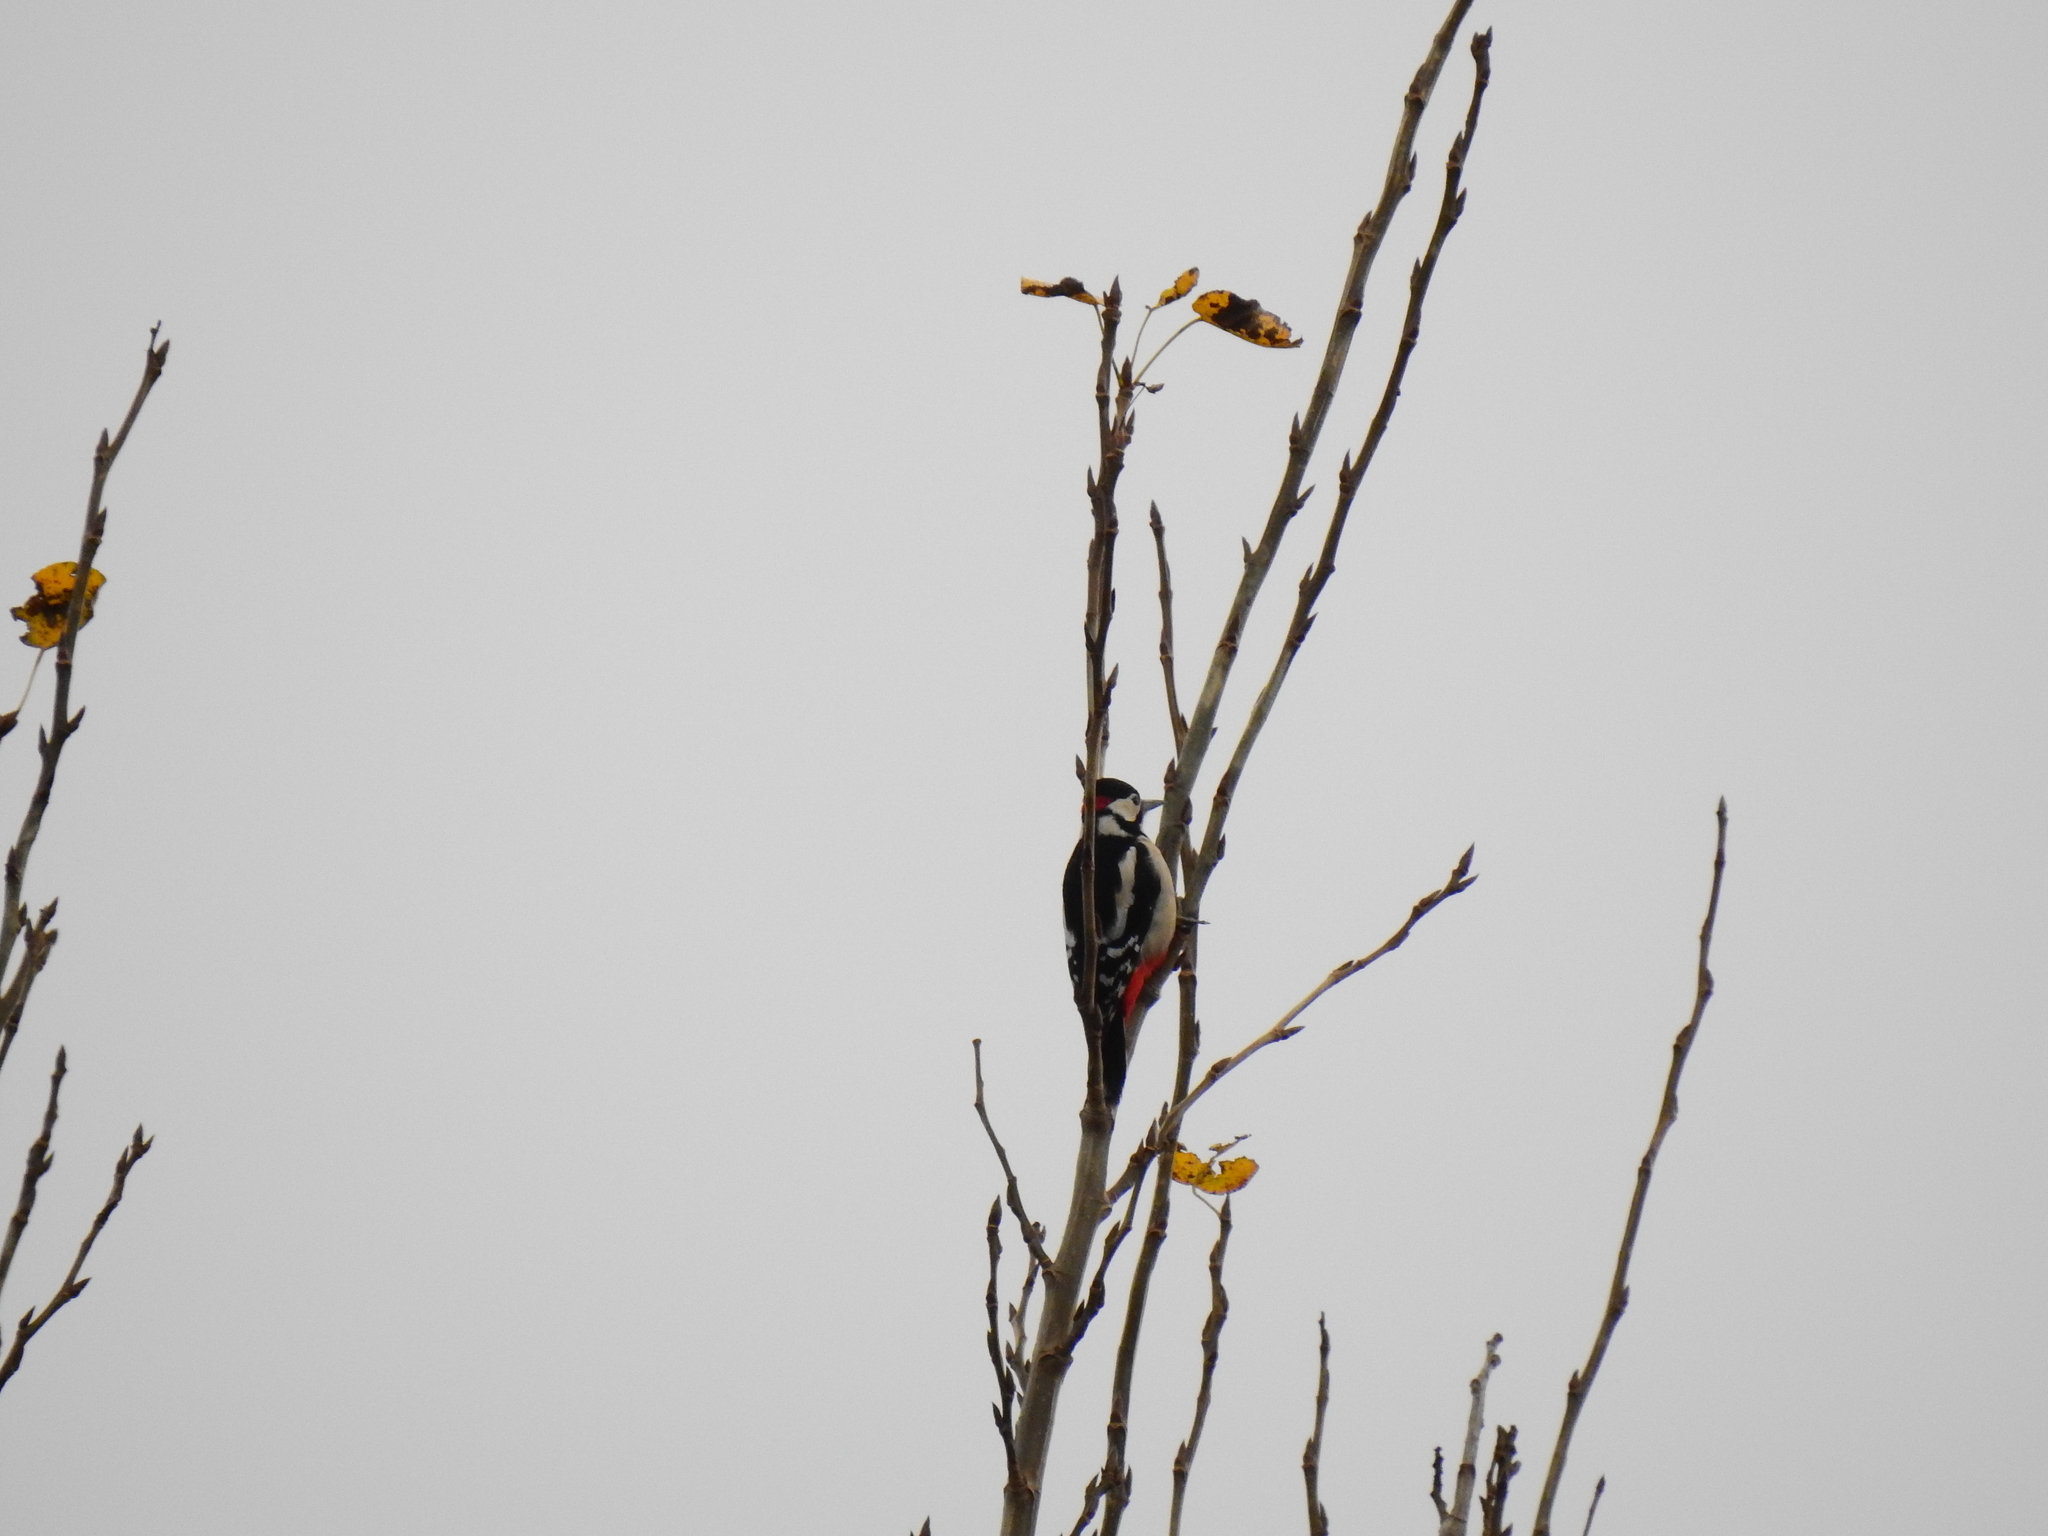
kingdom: Animalia
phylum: Chordata
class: Aves
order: Piciformes
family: Picidae
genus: Dendrocopos
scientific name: Dendrocopos major
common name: Great spotted woodpecker
